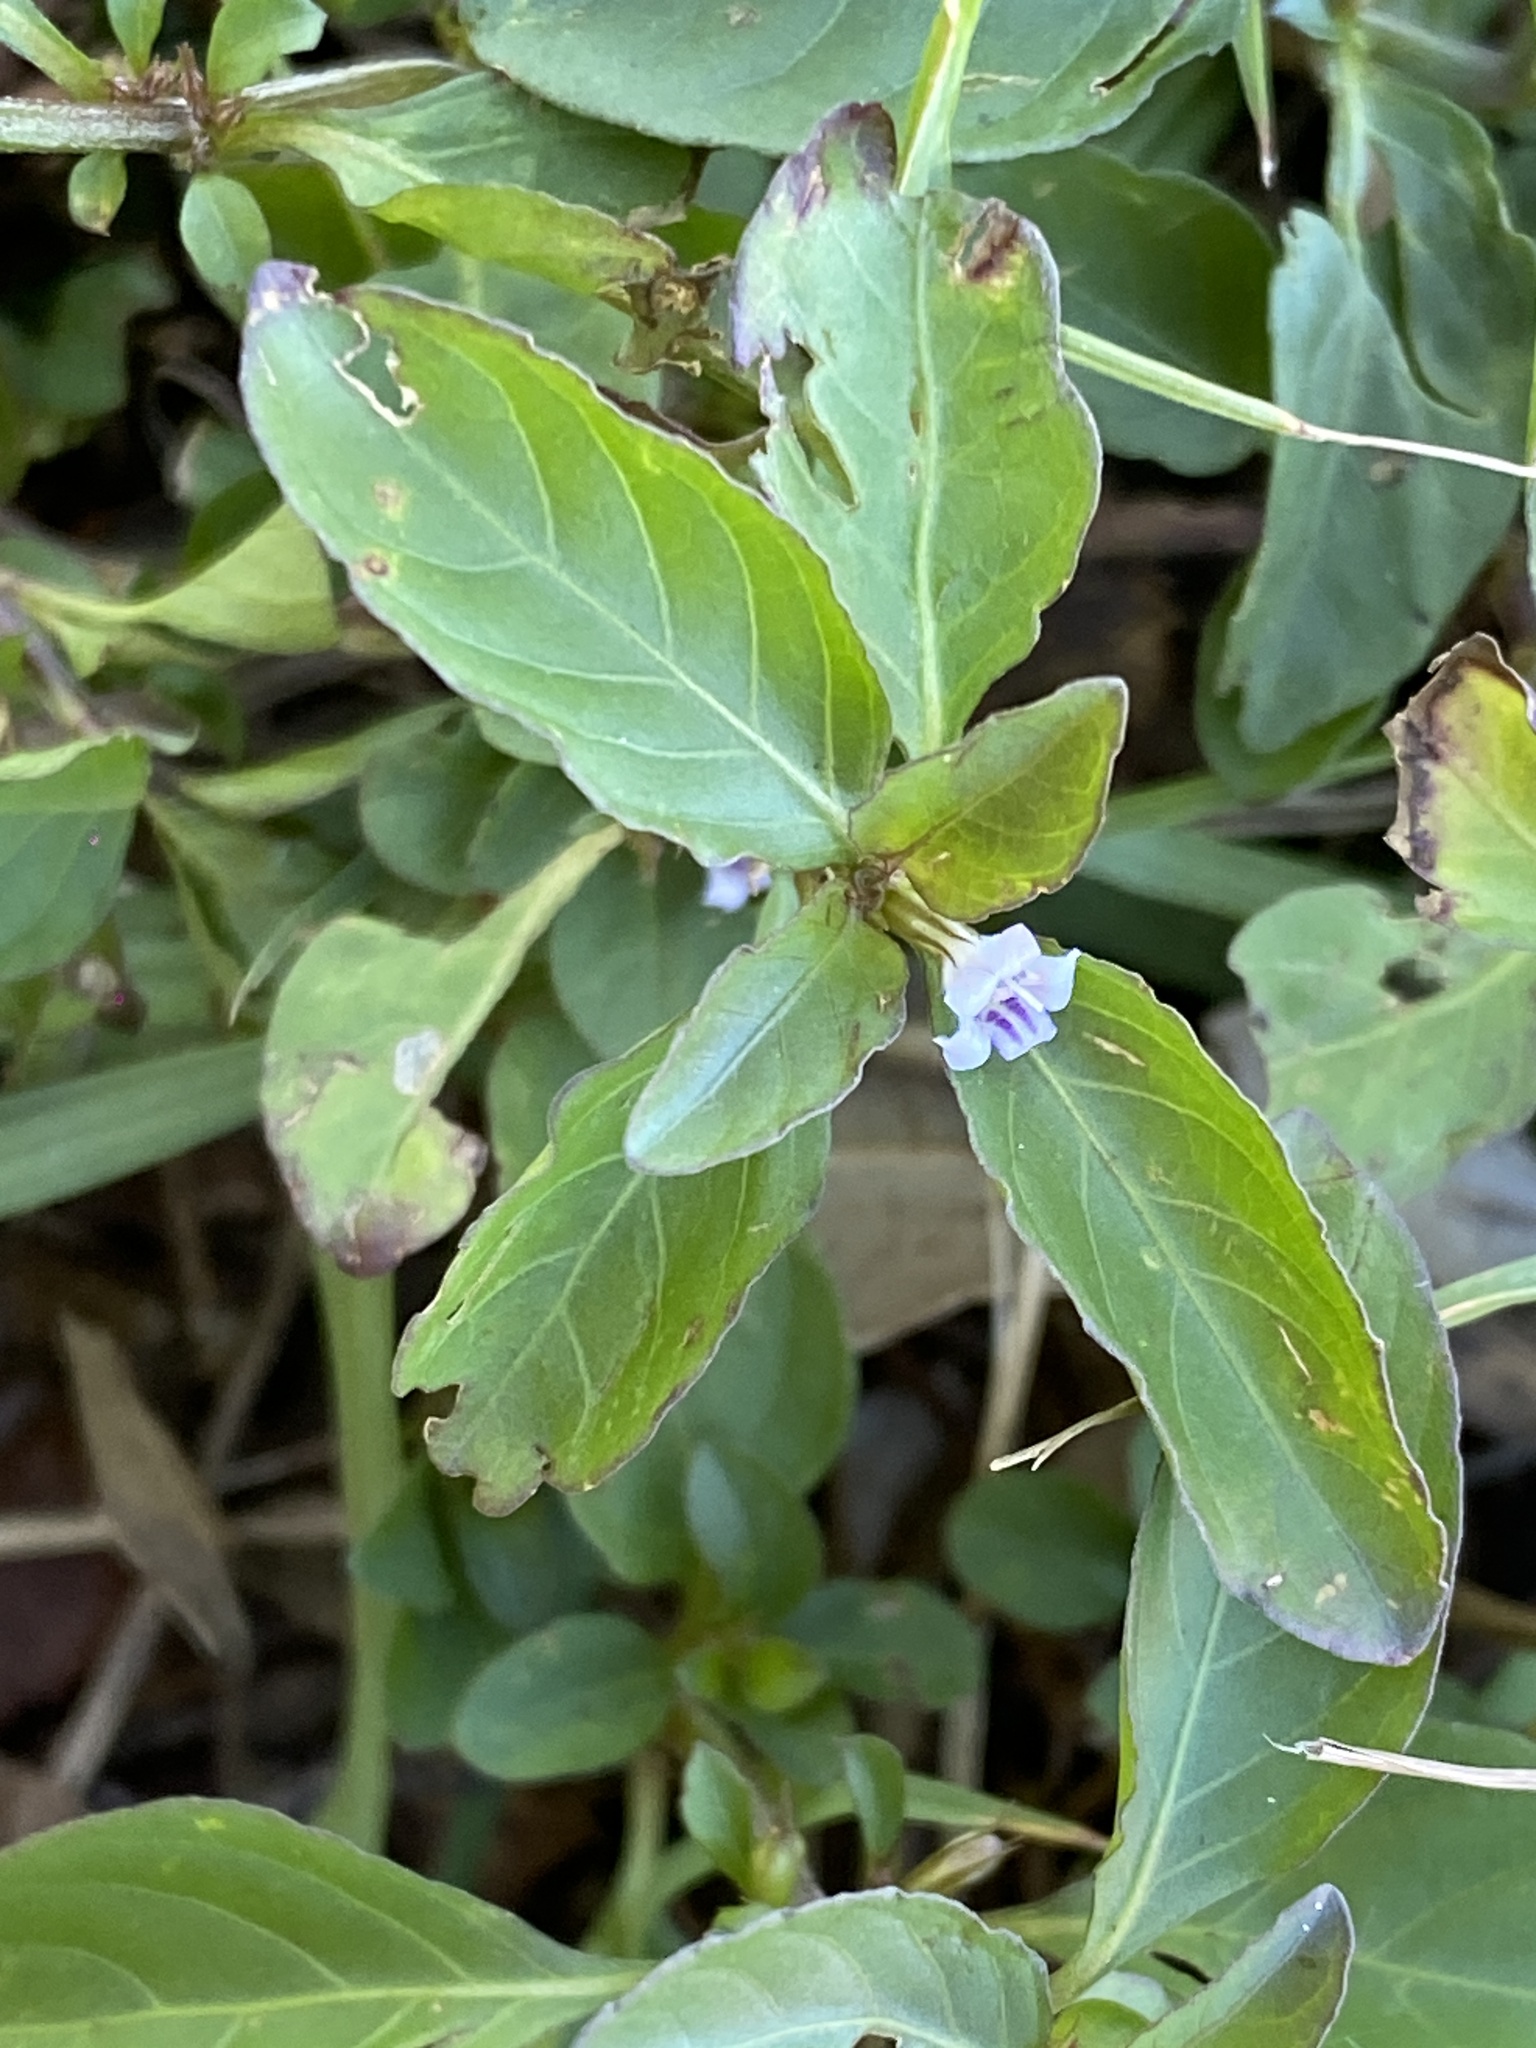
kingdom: Plantae
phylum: Tracheophyta
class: Magnoliopsida
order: Lamiales
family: Acanthaceae
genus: Hygrophila
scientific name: Hygrophila erecta
